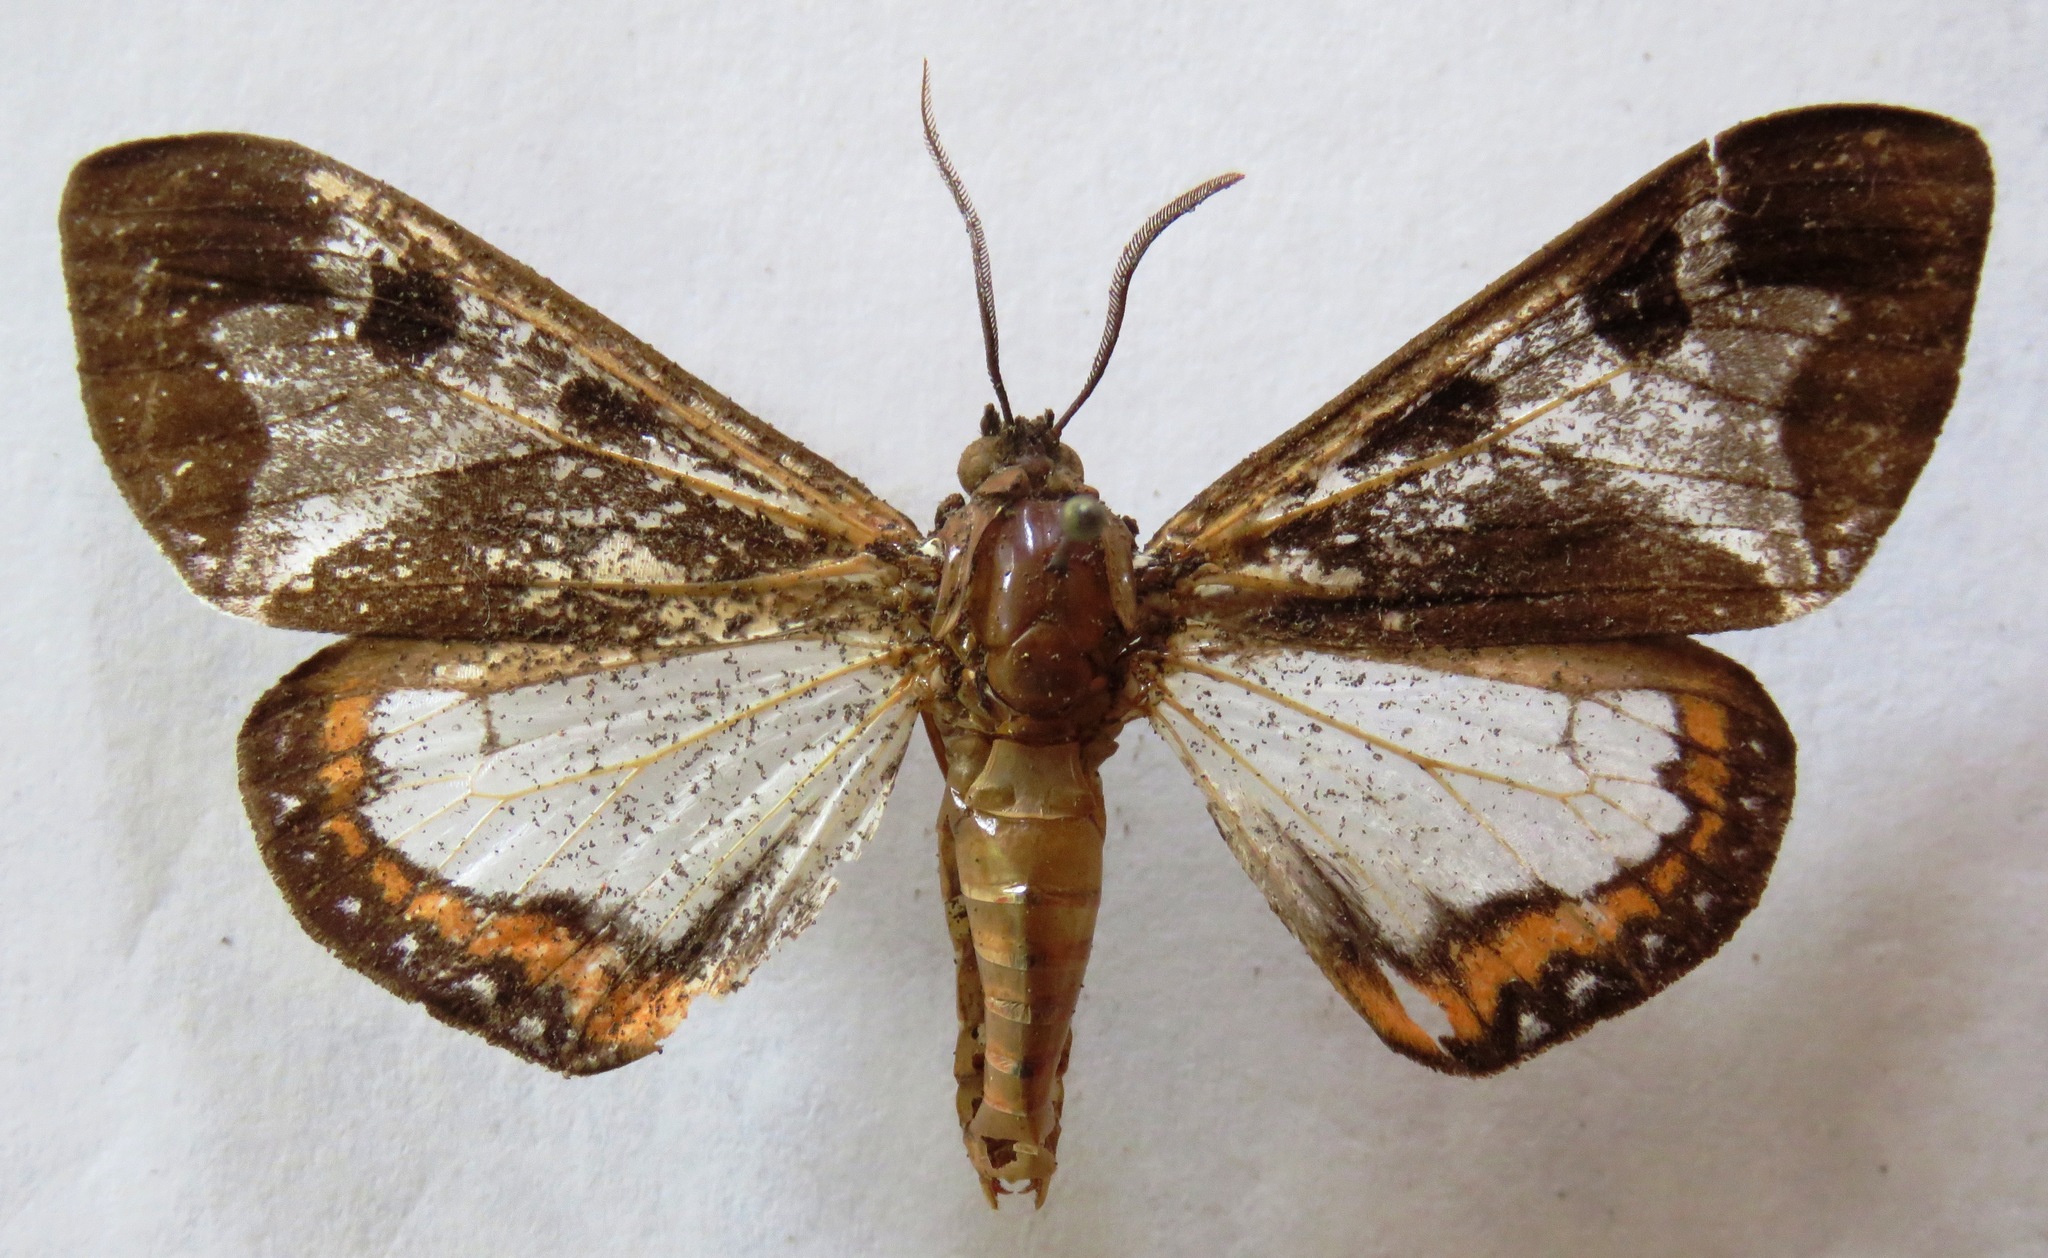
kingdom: Animalia
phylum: Arthropoda
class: Insecta
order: Lepidoptera
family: Erebidae
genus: Dysschema
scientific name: Dysschema magdala
